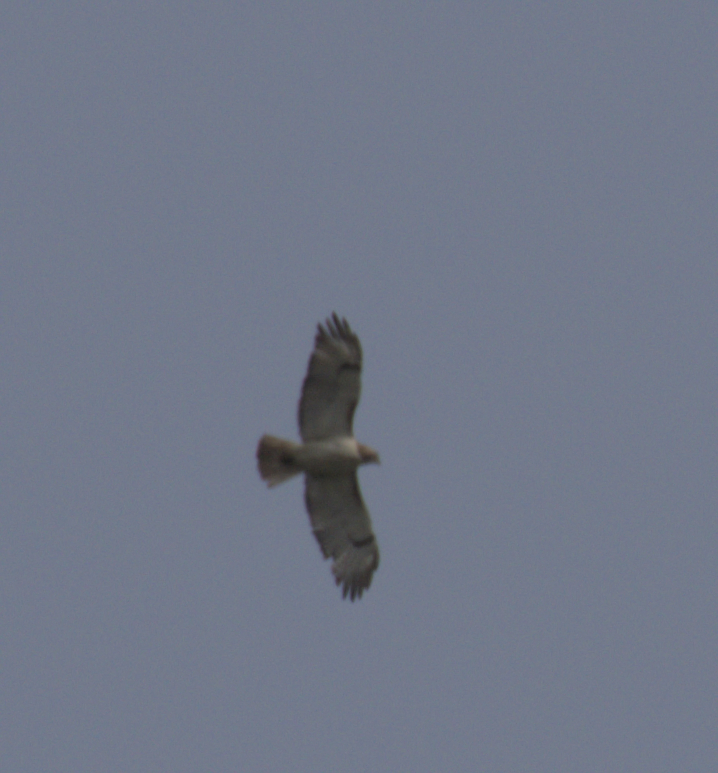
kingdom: Animalia
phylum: Chordata
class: Aves
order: Accipitriformes
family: Accipitridae
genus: Buteo
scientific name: Buteo jamaicensis
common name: Red-tailed hawk
